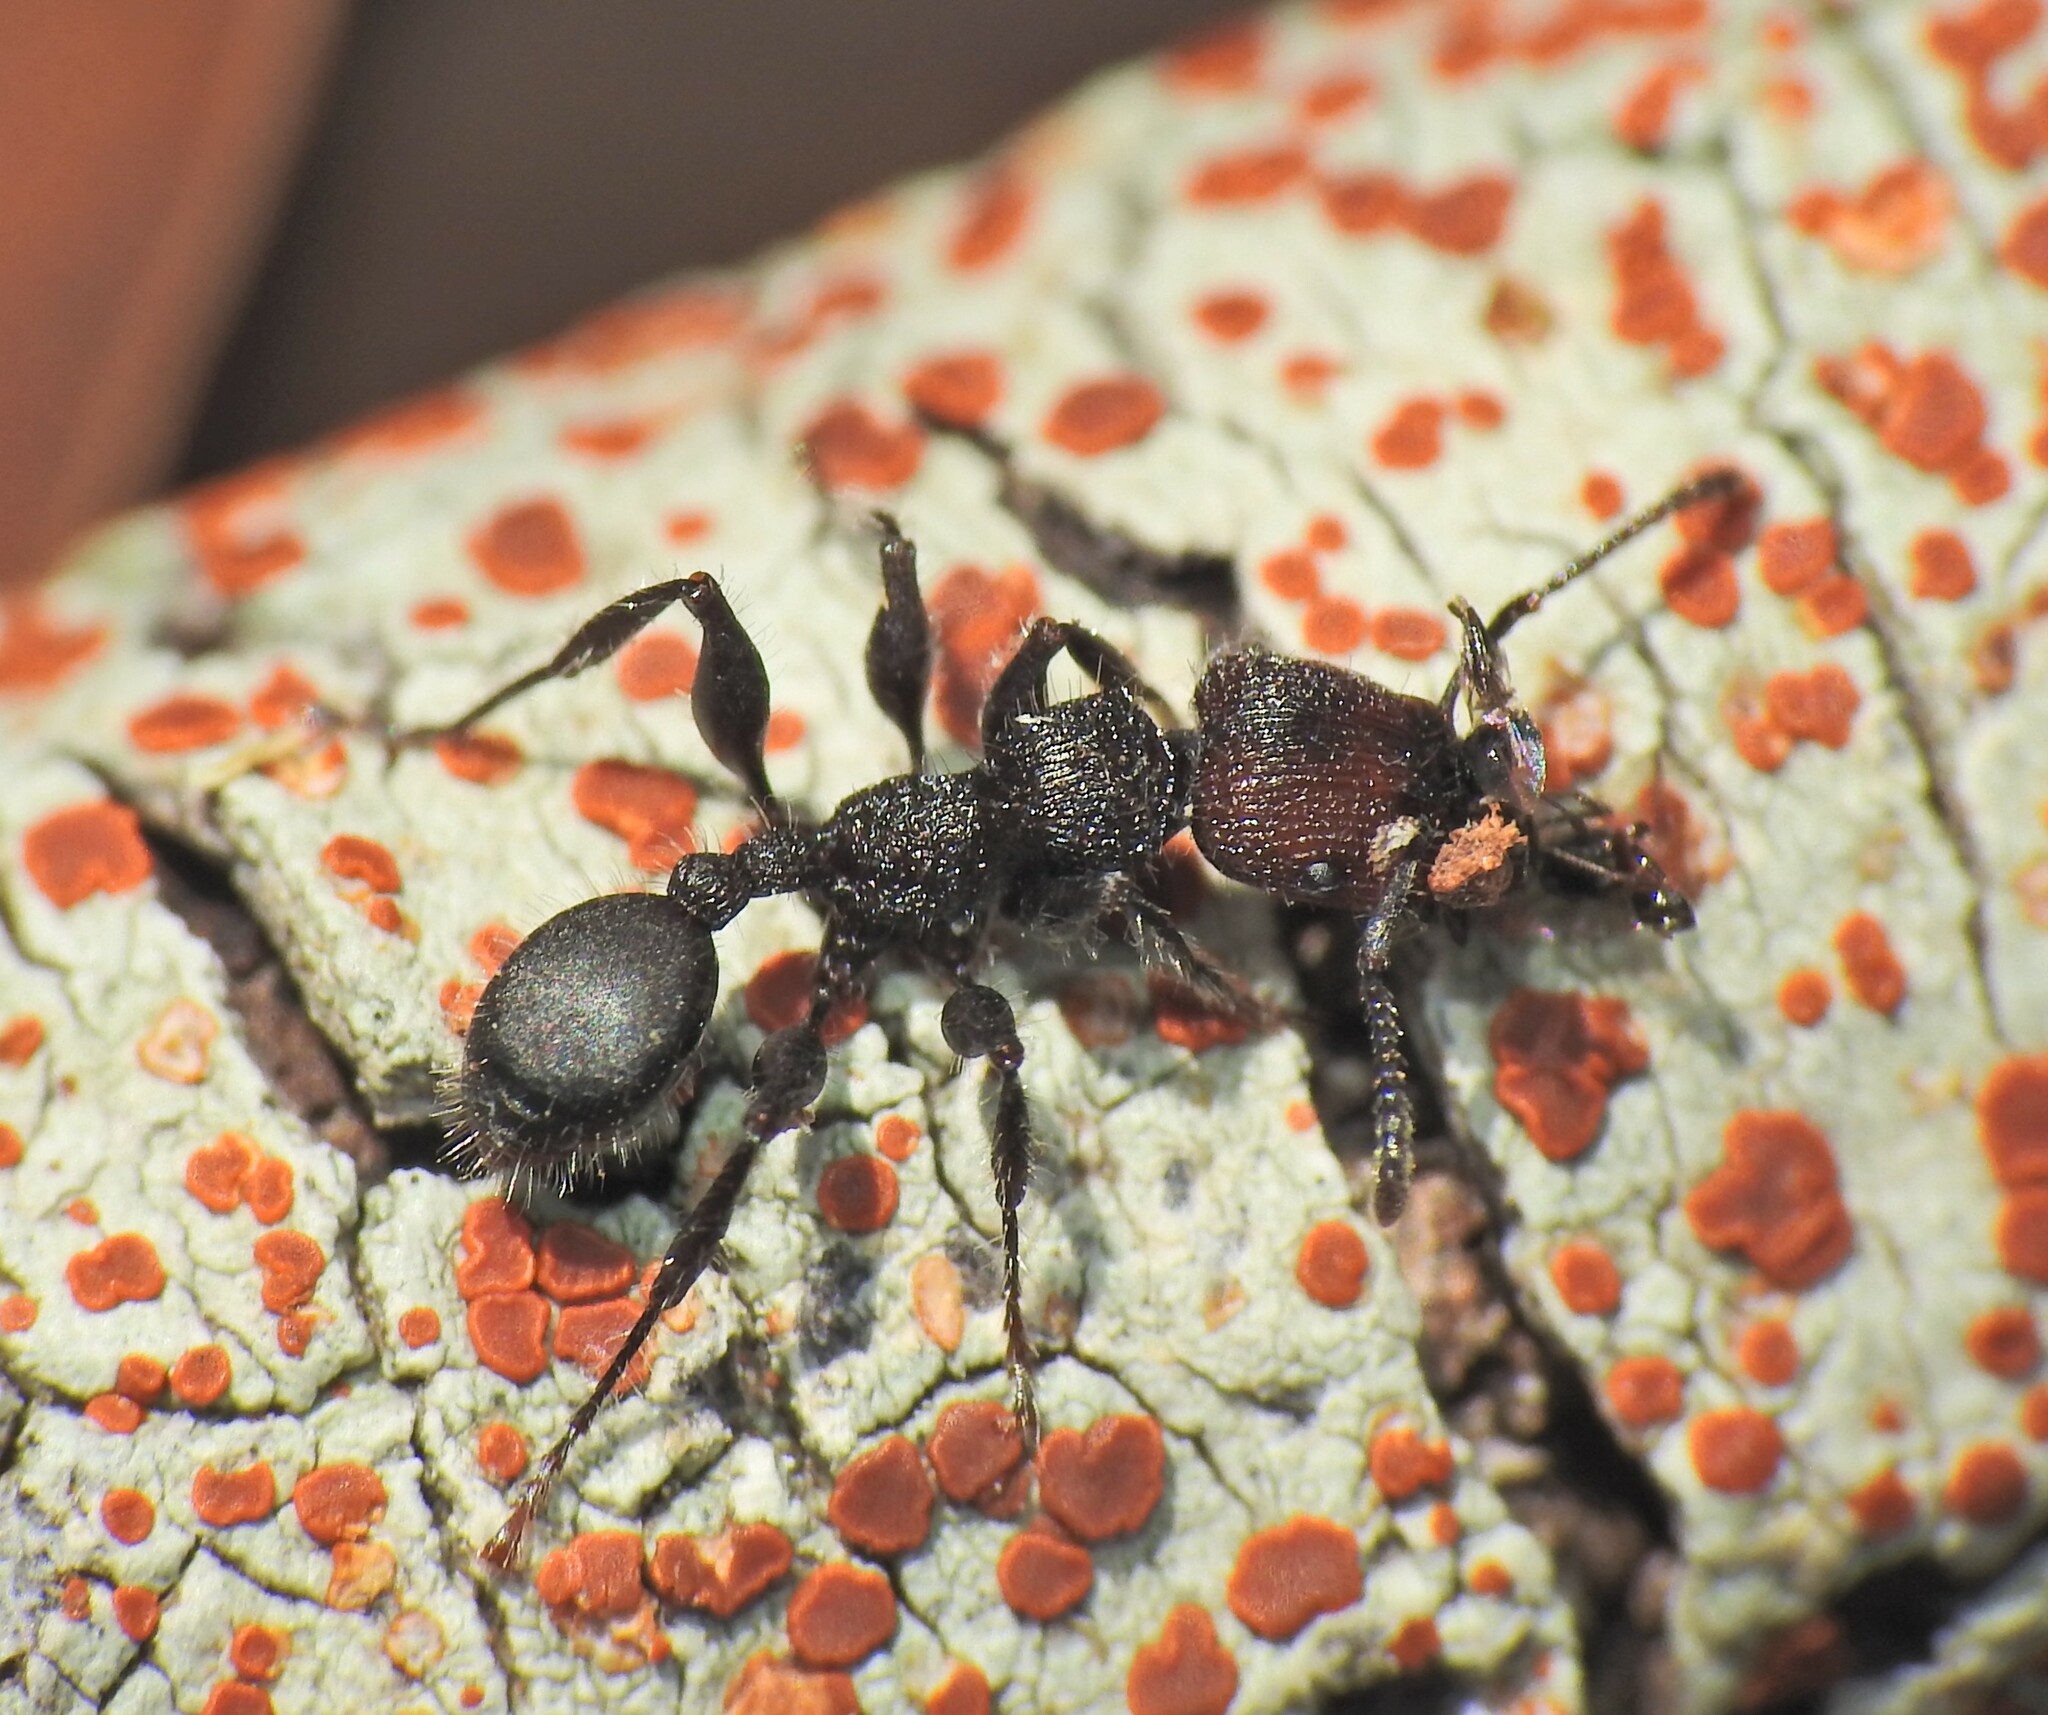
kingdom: Animalia
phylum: Arthropoda
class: Insecta
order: Hymenoptera
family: Formicidae
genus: Podomyrma
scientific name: Podomyrma micans
